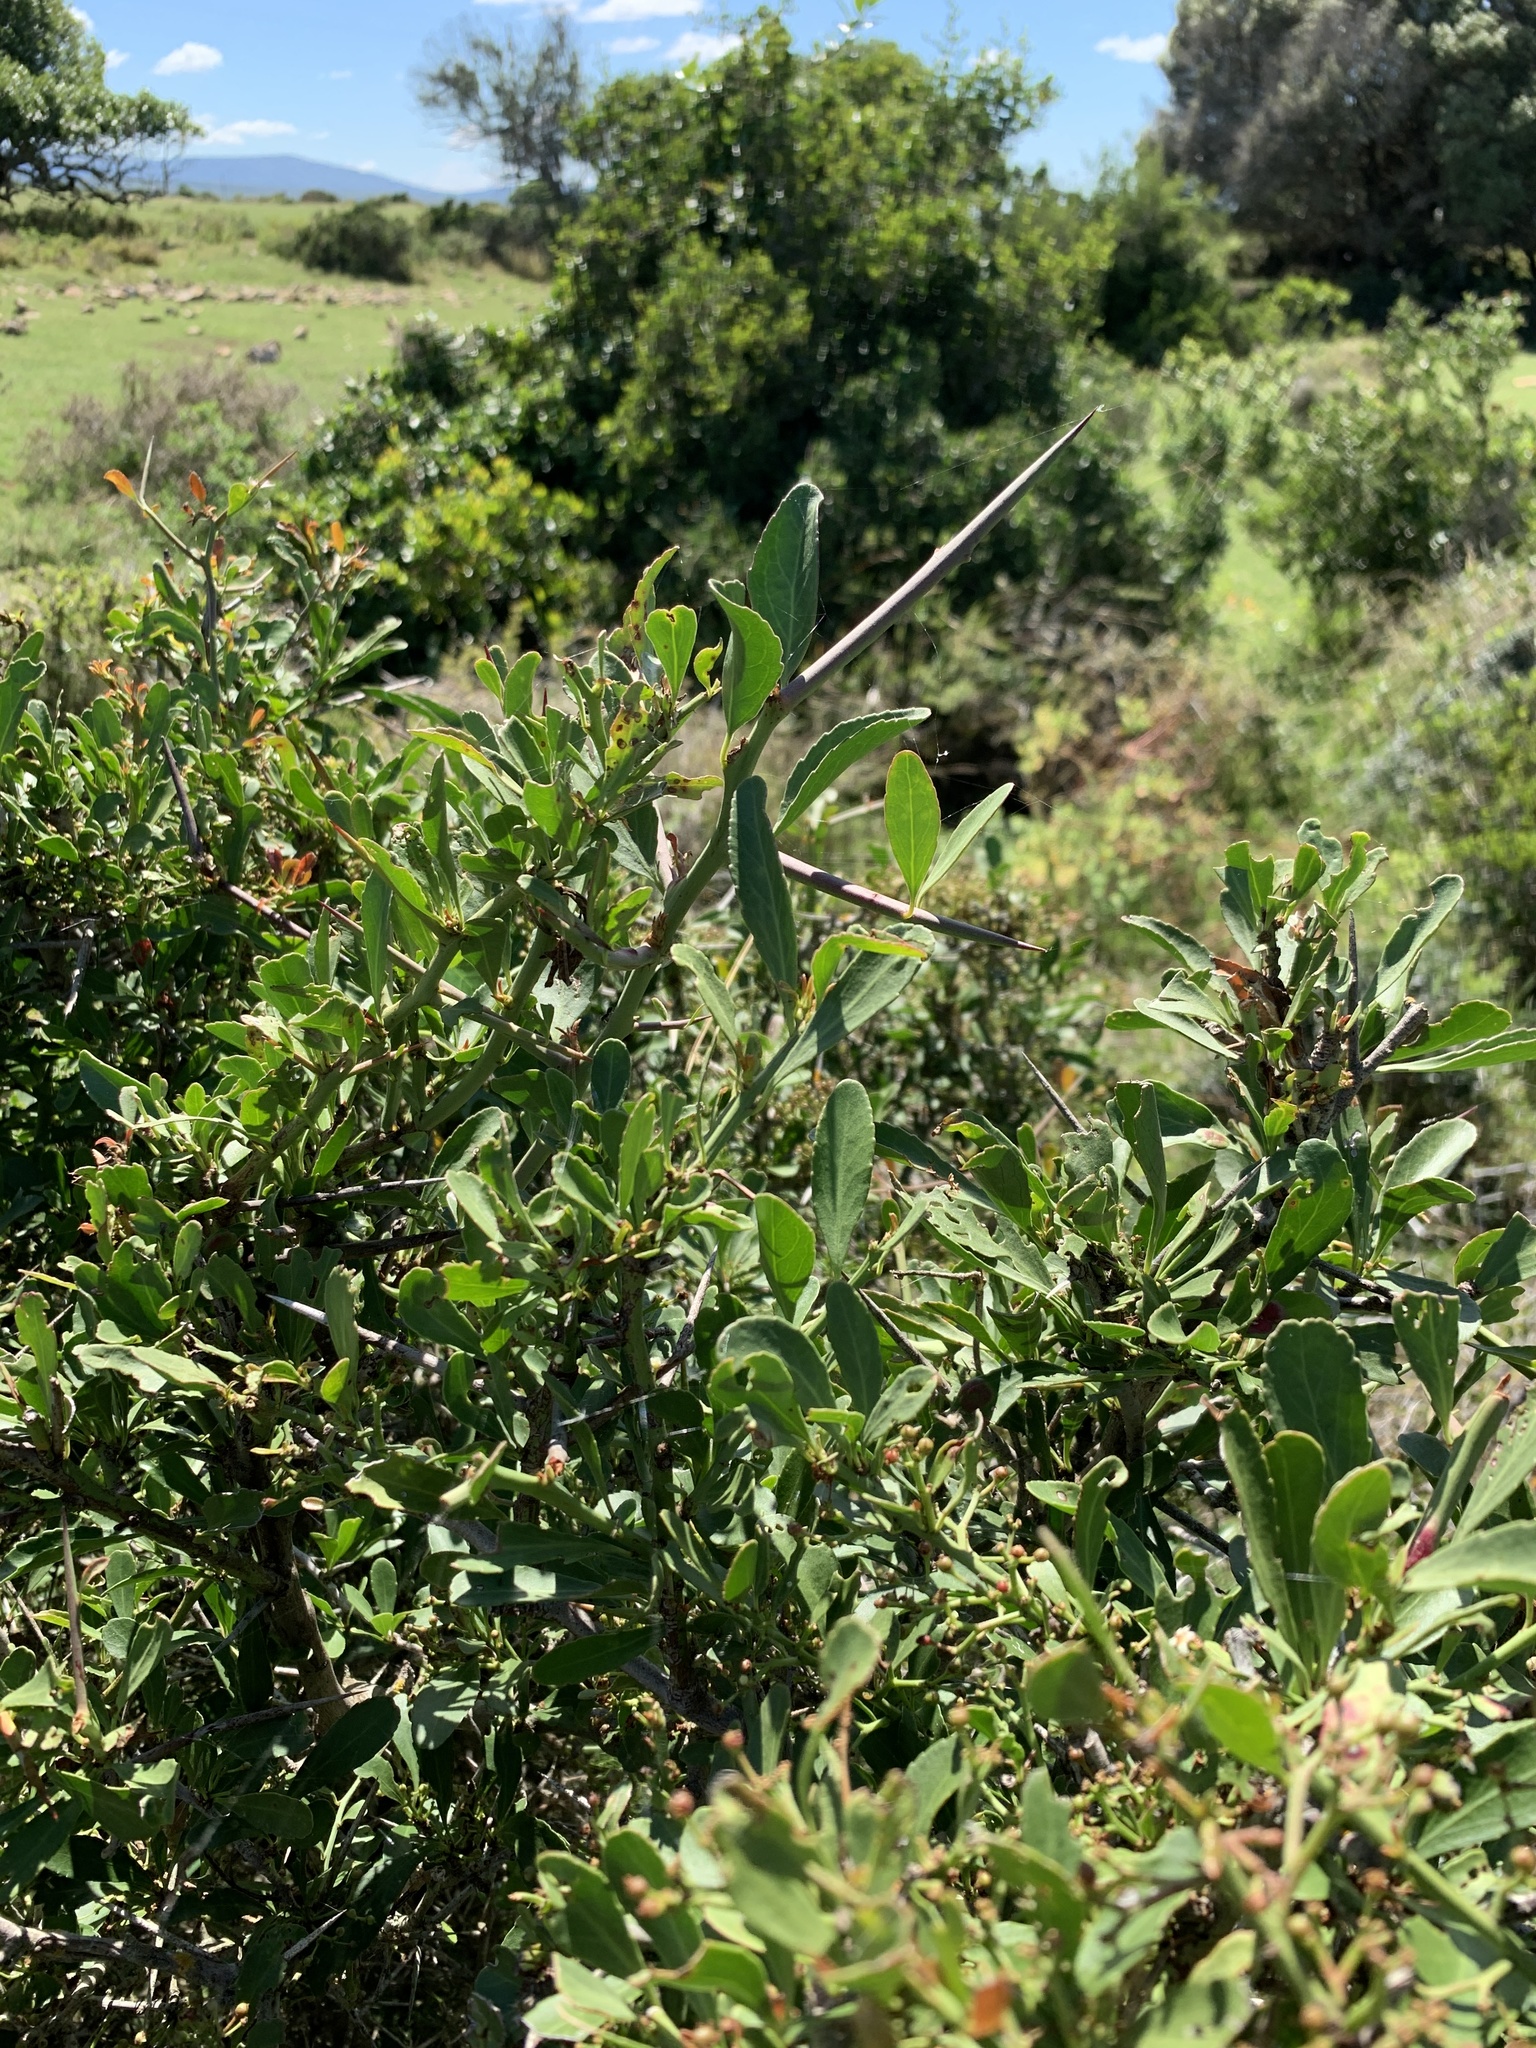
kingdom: Plantae
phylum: Tracheophyta
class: Magnoliopsida
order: Celastrales
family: Celastraceae
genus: Gymnosporia
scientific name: Gymnosporia buxifolia
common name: Common spike-thorn
